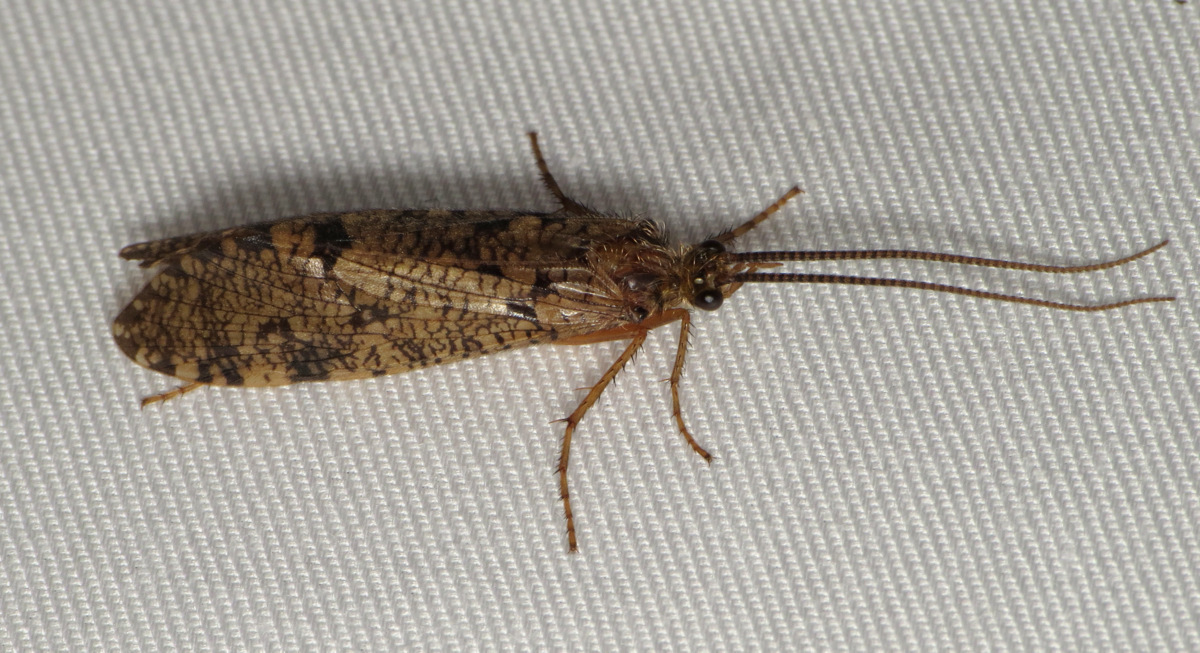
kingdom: Animalia
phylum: Arthropoda
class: Insecta
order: Trichoptera
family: Phryganeidae
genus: Banksiola
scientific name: Banksiola crotchi
